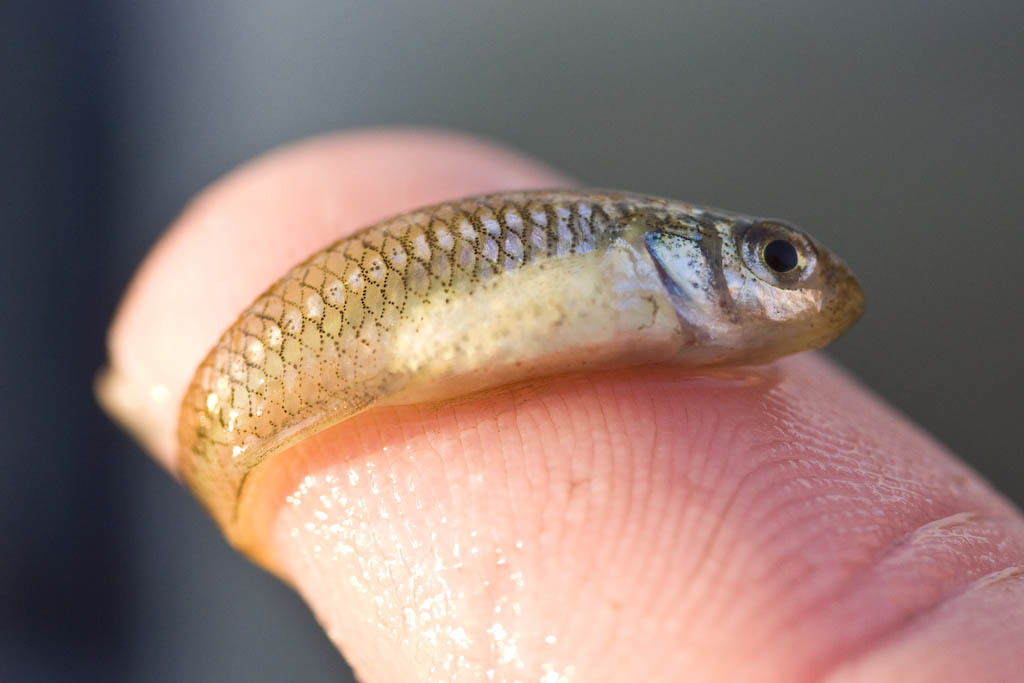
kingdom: Animalia
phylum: Chordata
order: Cyprinodontiformes
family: Fundulidae
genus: Lucania
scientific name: Lucania parva
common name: Rainwater killifish
